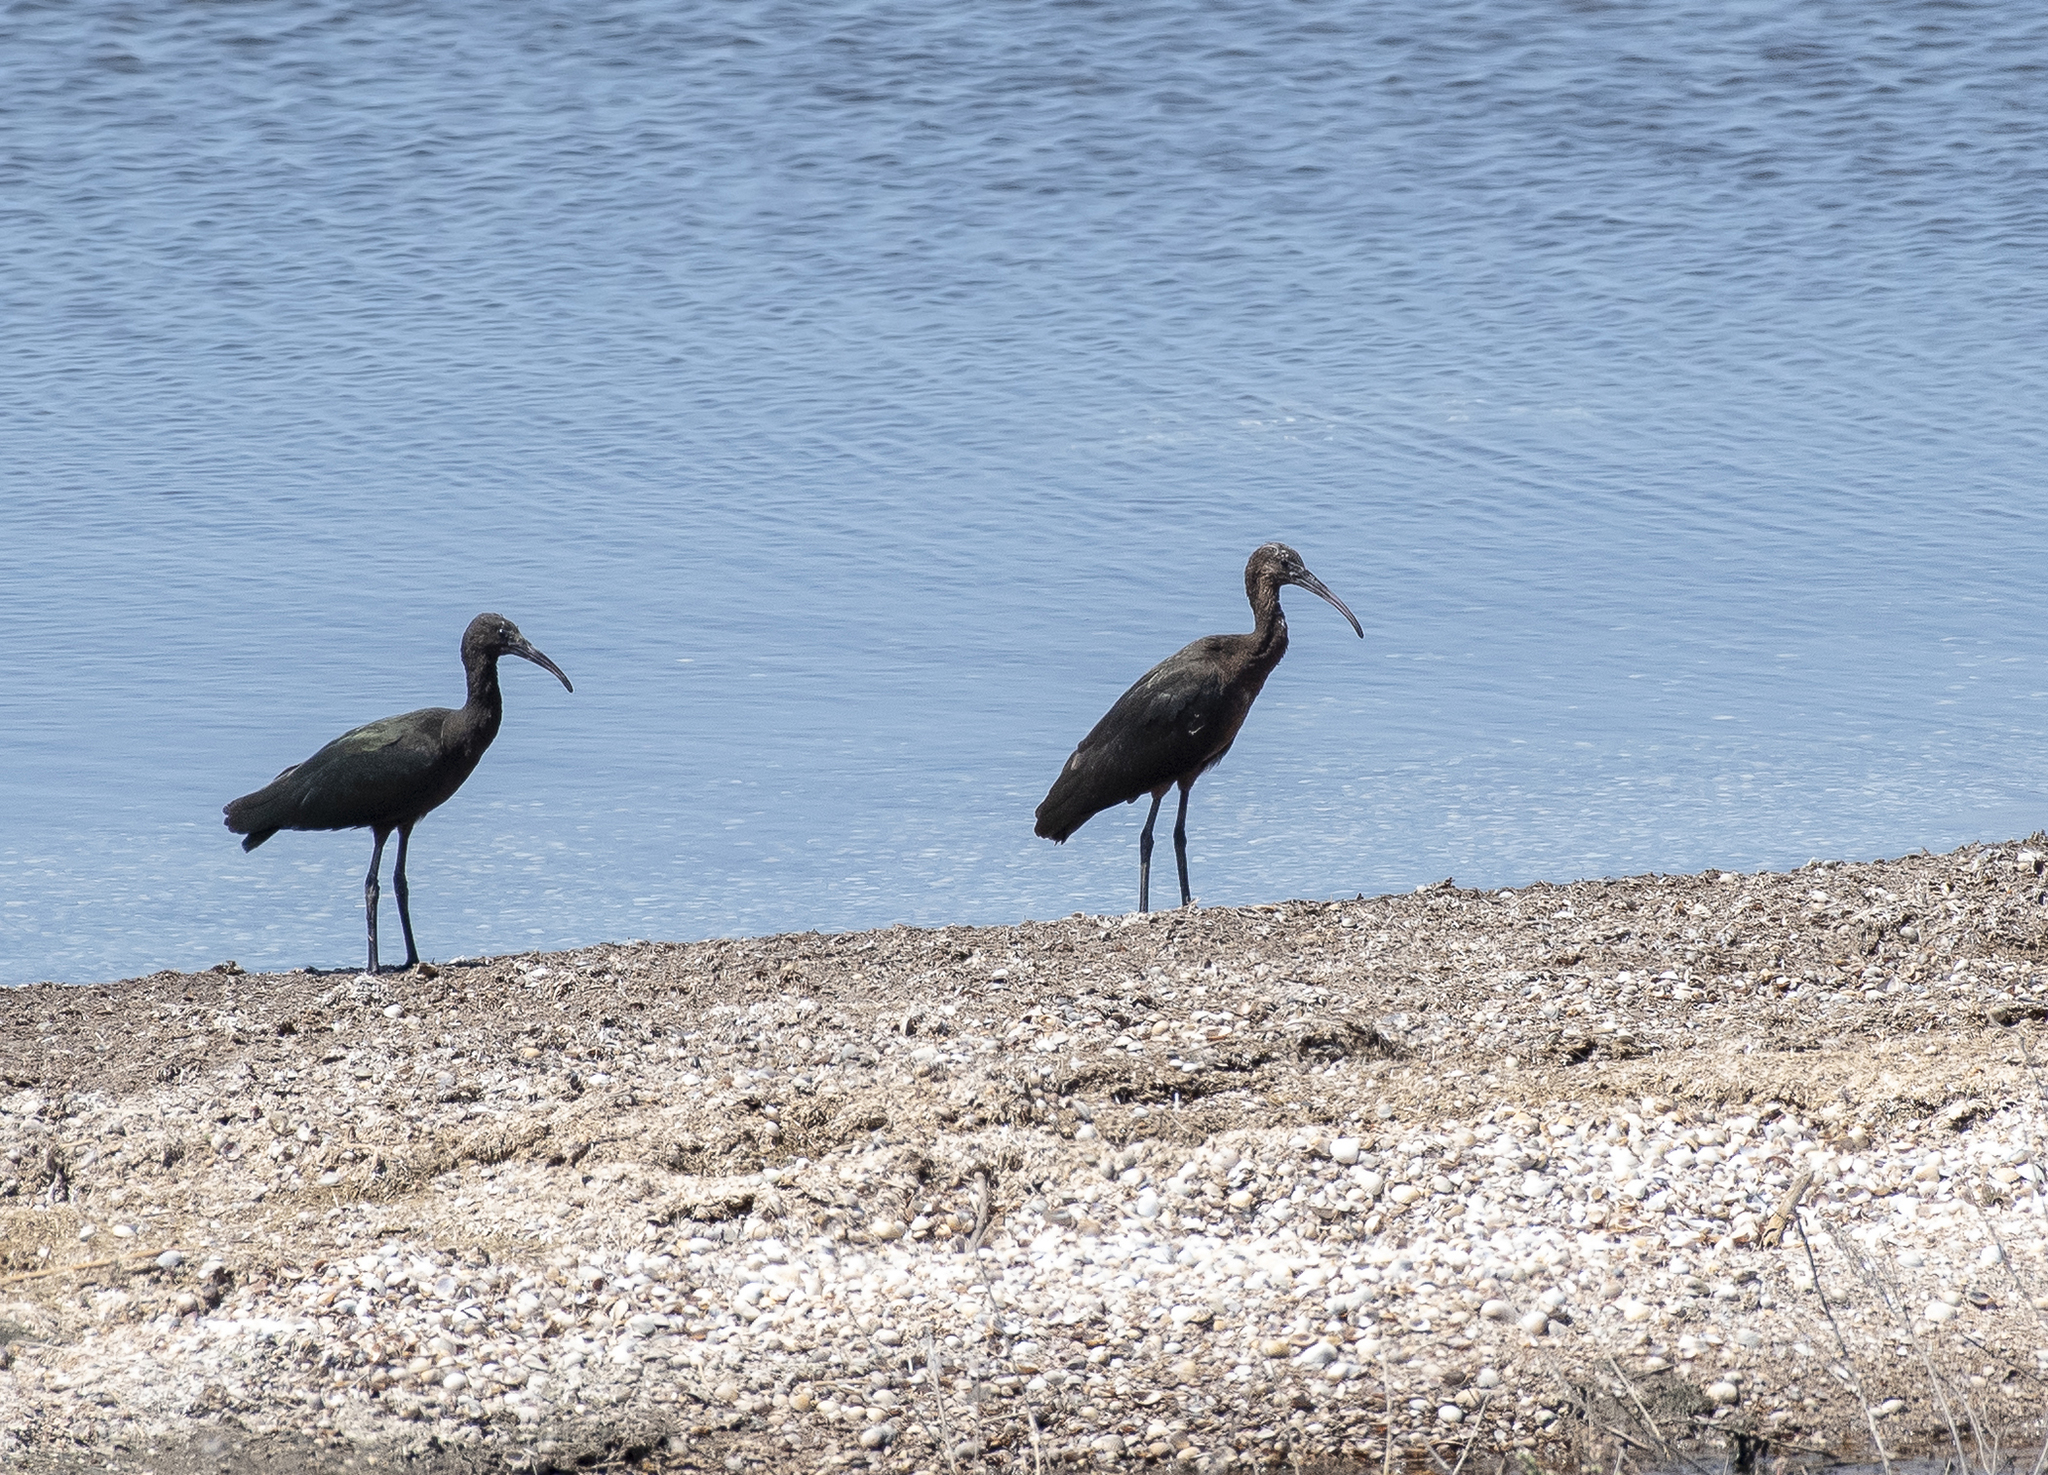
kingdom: Animalia
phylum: Chordata
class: Aves
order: Pelecaniformes
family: Threskiornithidae
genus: Plegadis
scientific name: Plegadis falcinellus
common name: Glossy ibis
